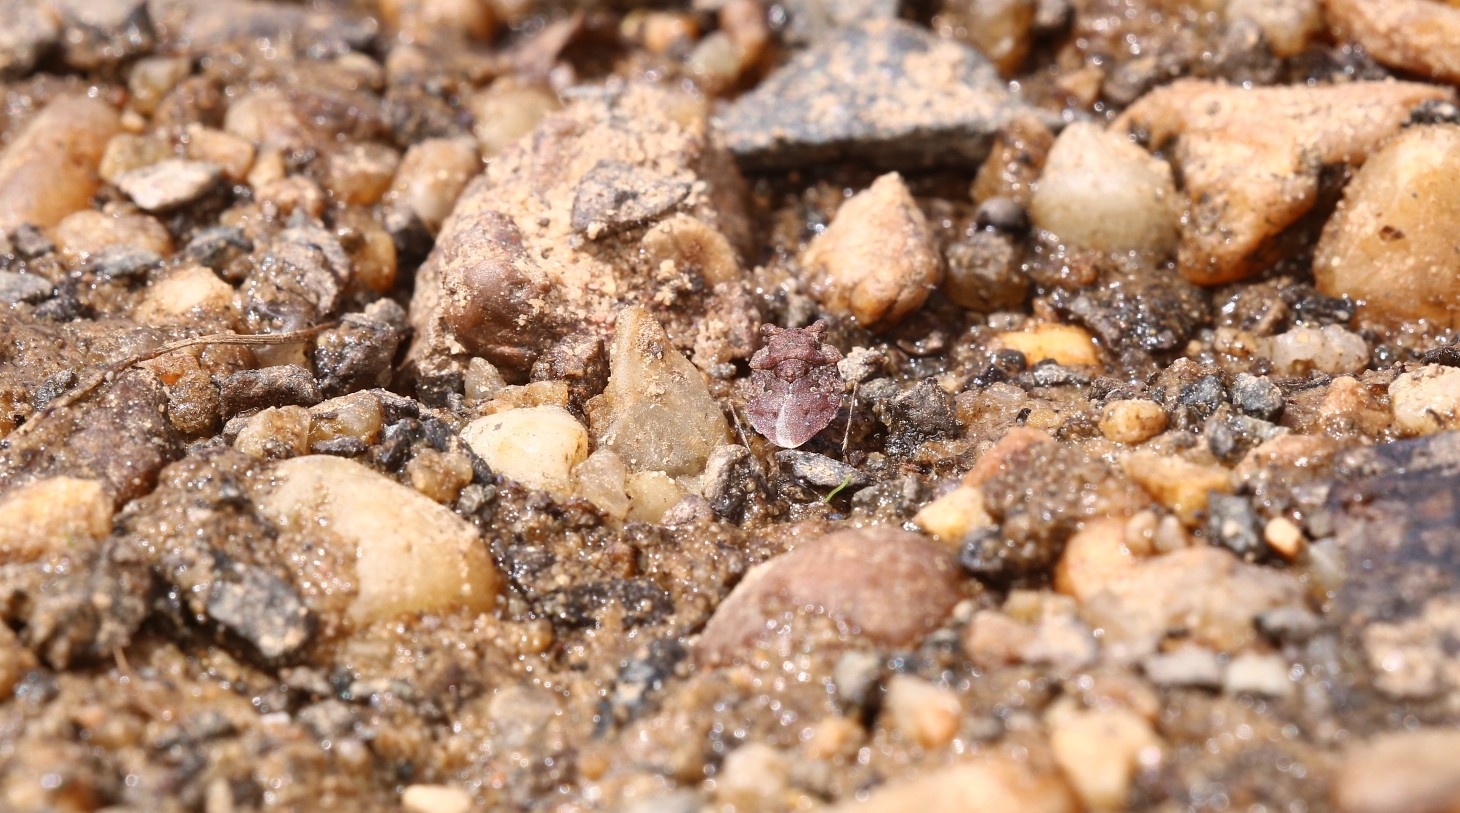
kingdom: Animalia
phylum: Arthropoda
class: Insecta
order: Hemiptera
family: Gelastocoridae
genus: Gelastocoris
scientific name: Gelastocoris oculatus
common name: Toad bug
